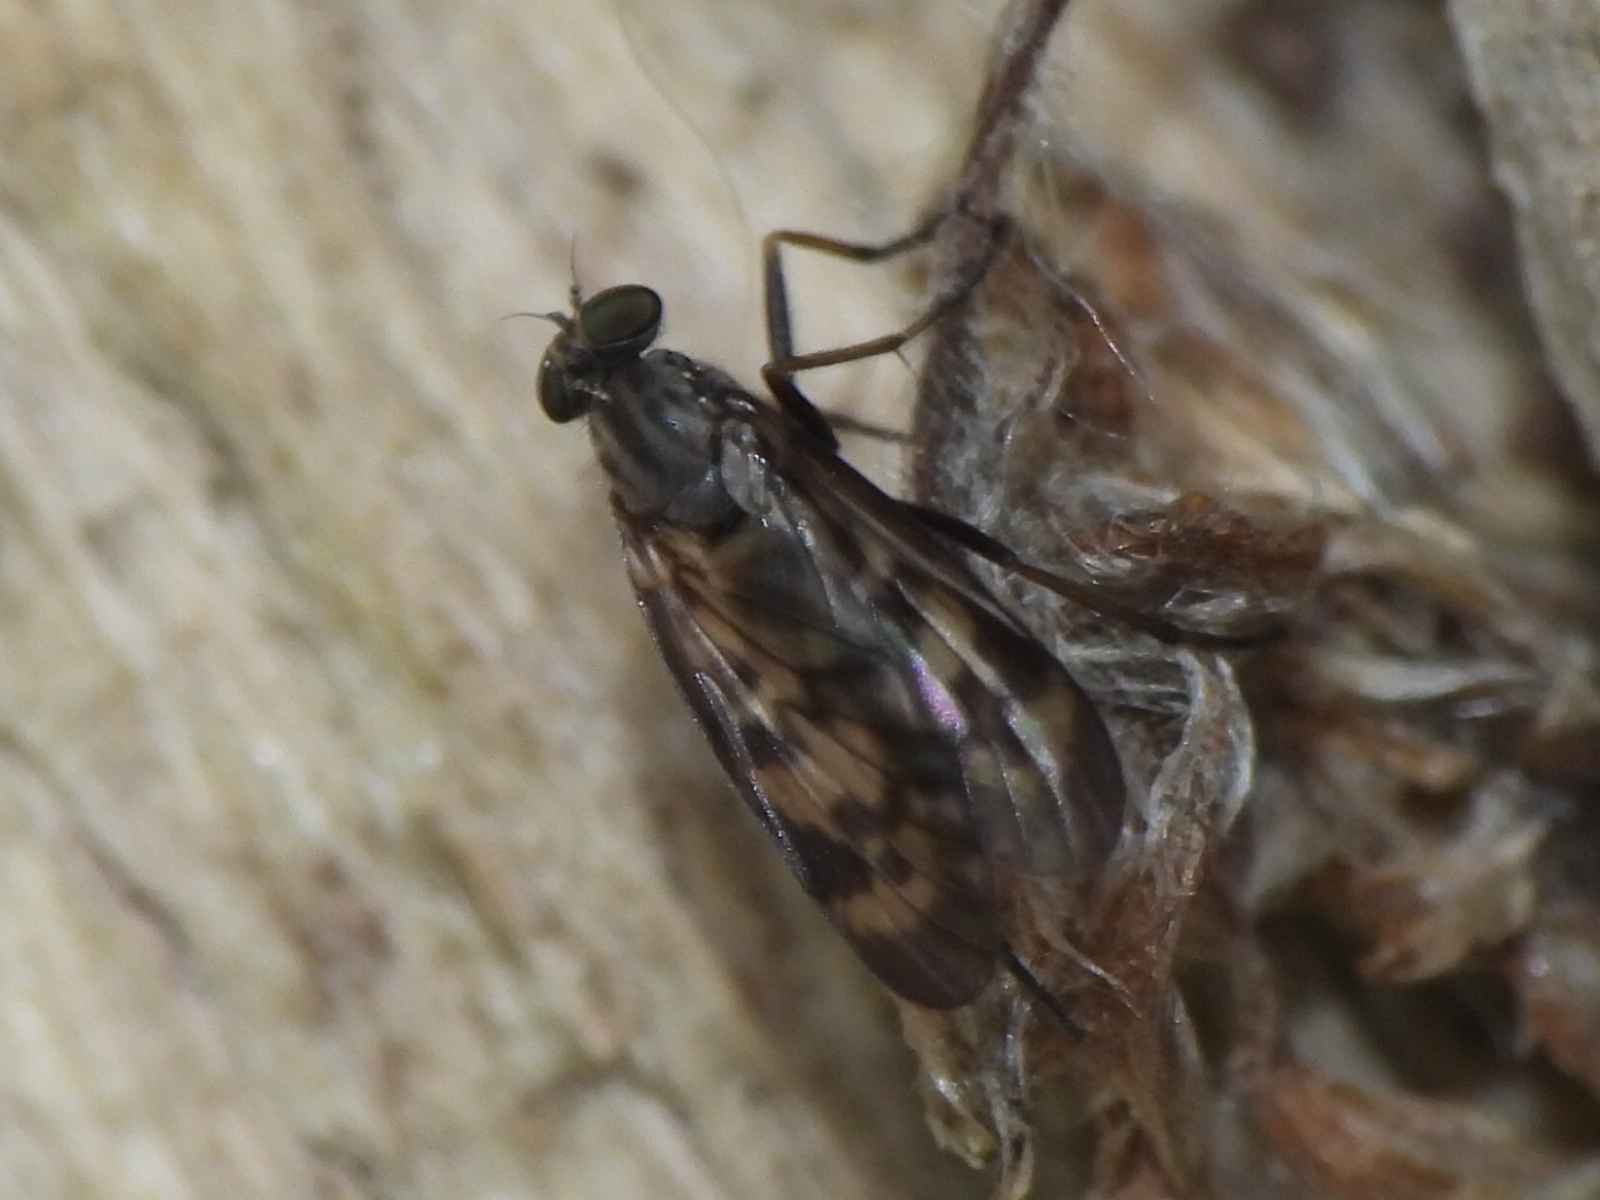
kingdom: Animalia
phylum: Arthropoda
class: Insecta
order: Diptera
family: Rhagionidae
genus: Rhagio
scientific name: Rhagio punctipennis
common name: Lesser variegated snipe fly
